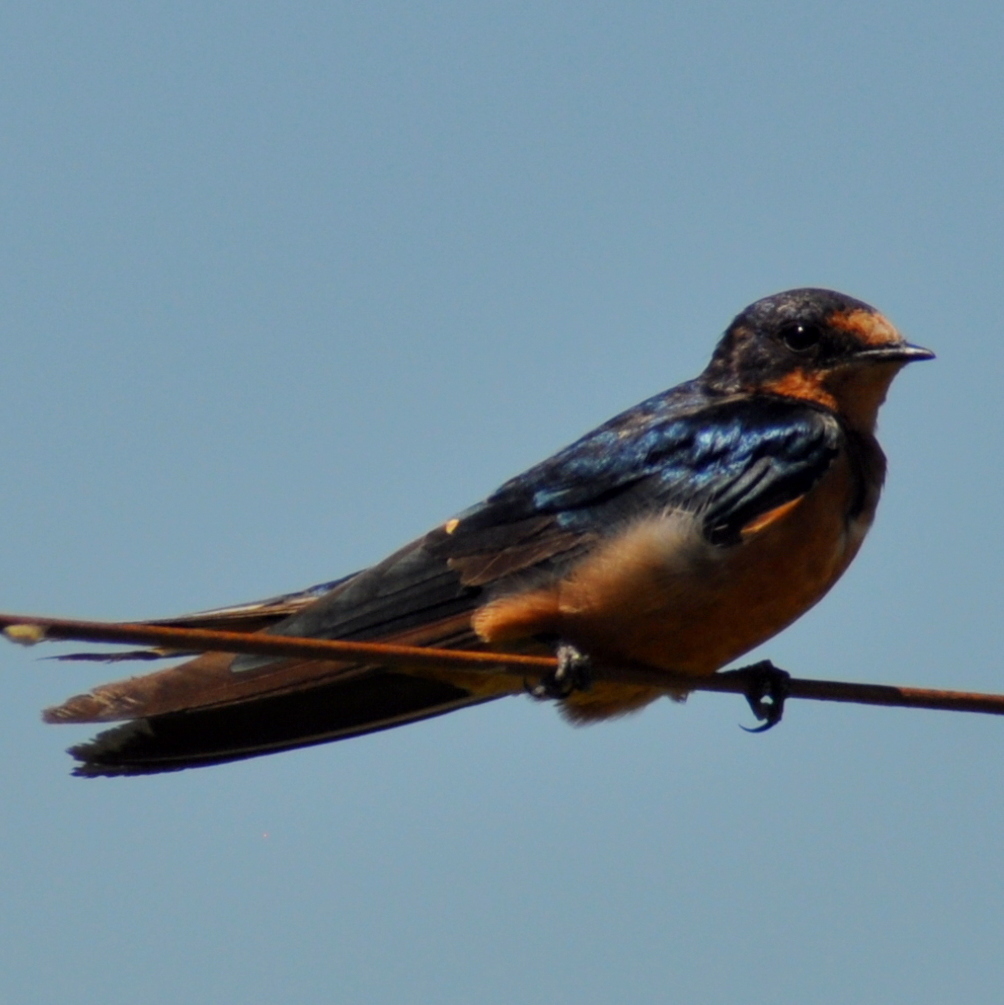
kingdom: Animalia
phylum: Chordata
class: Aves
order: Passeriformes
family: Hirundinidae
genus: Hirundo
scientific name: Hirundo rustica
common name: Barn swallow
